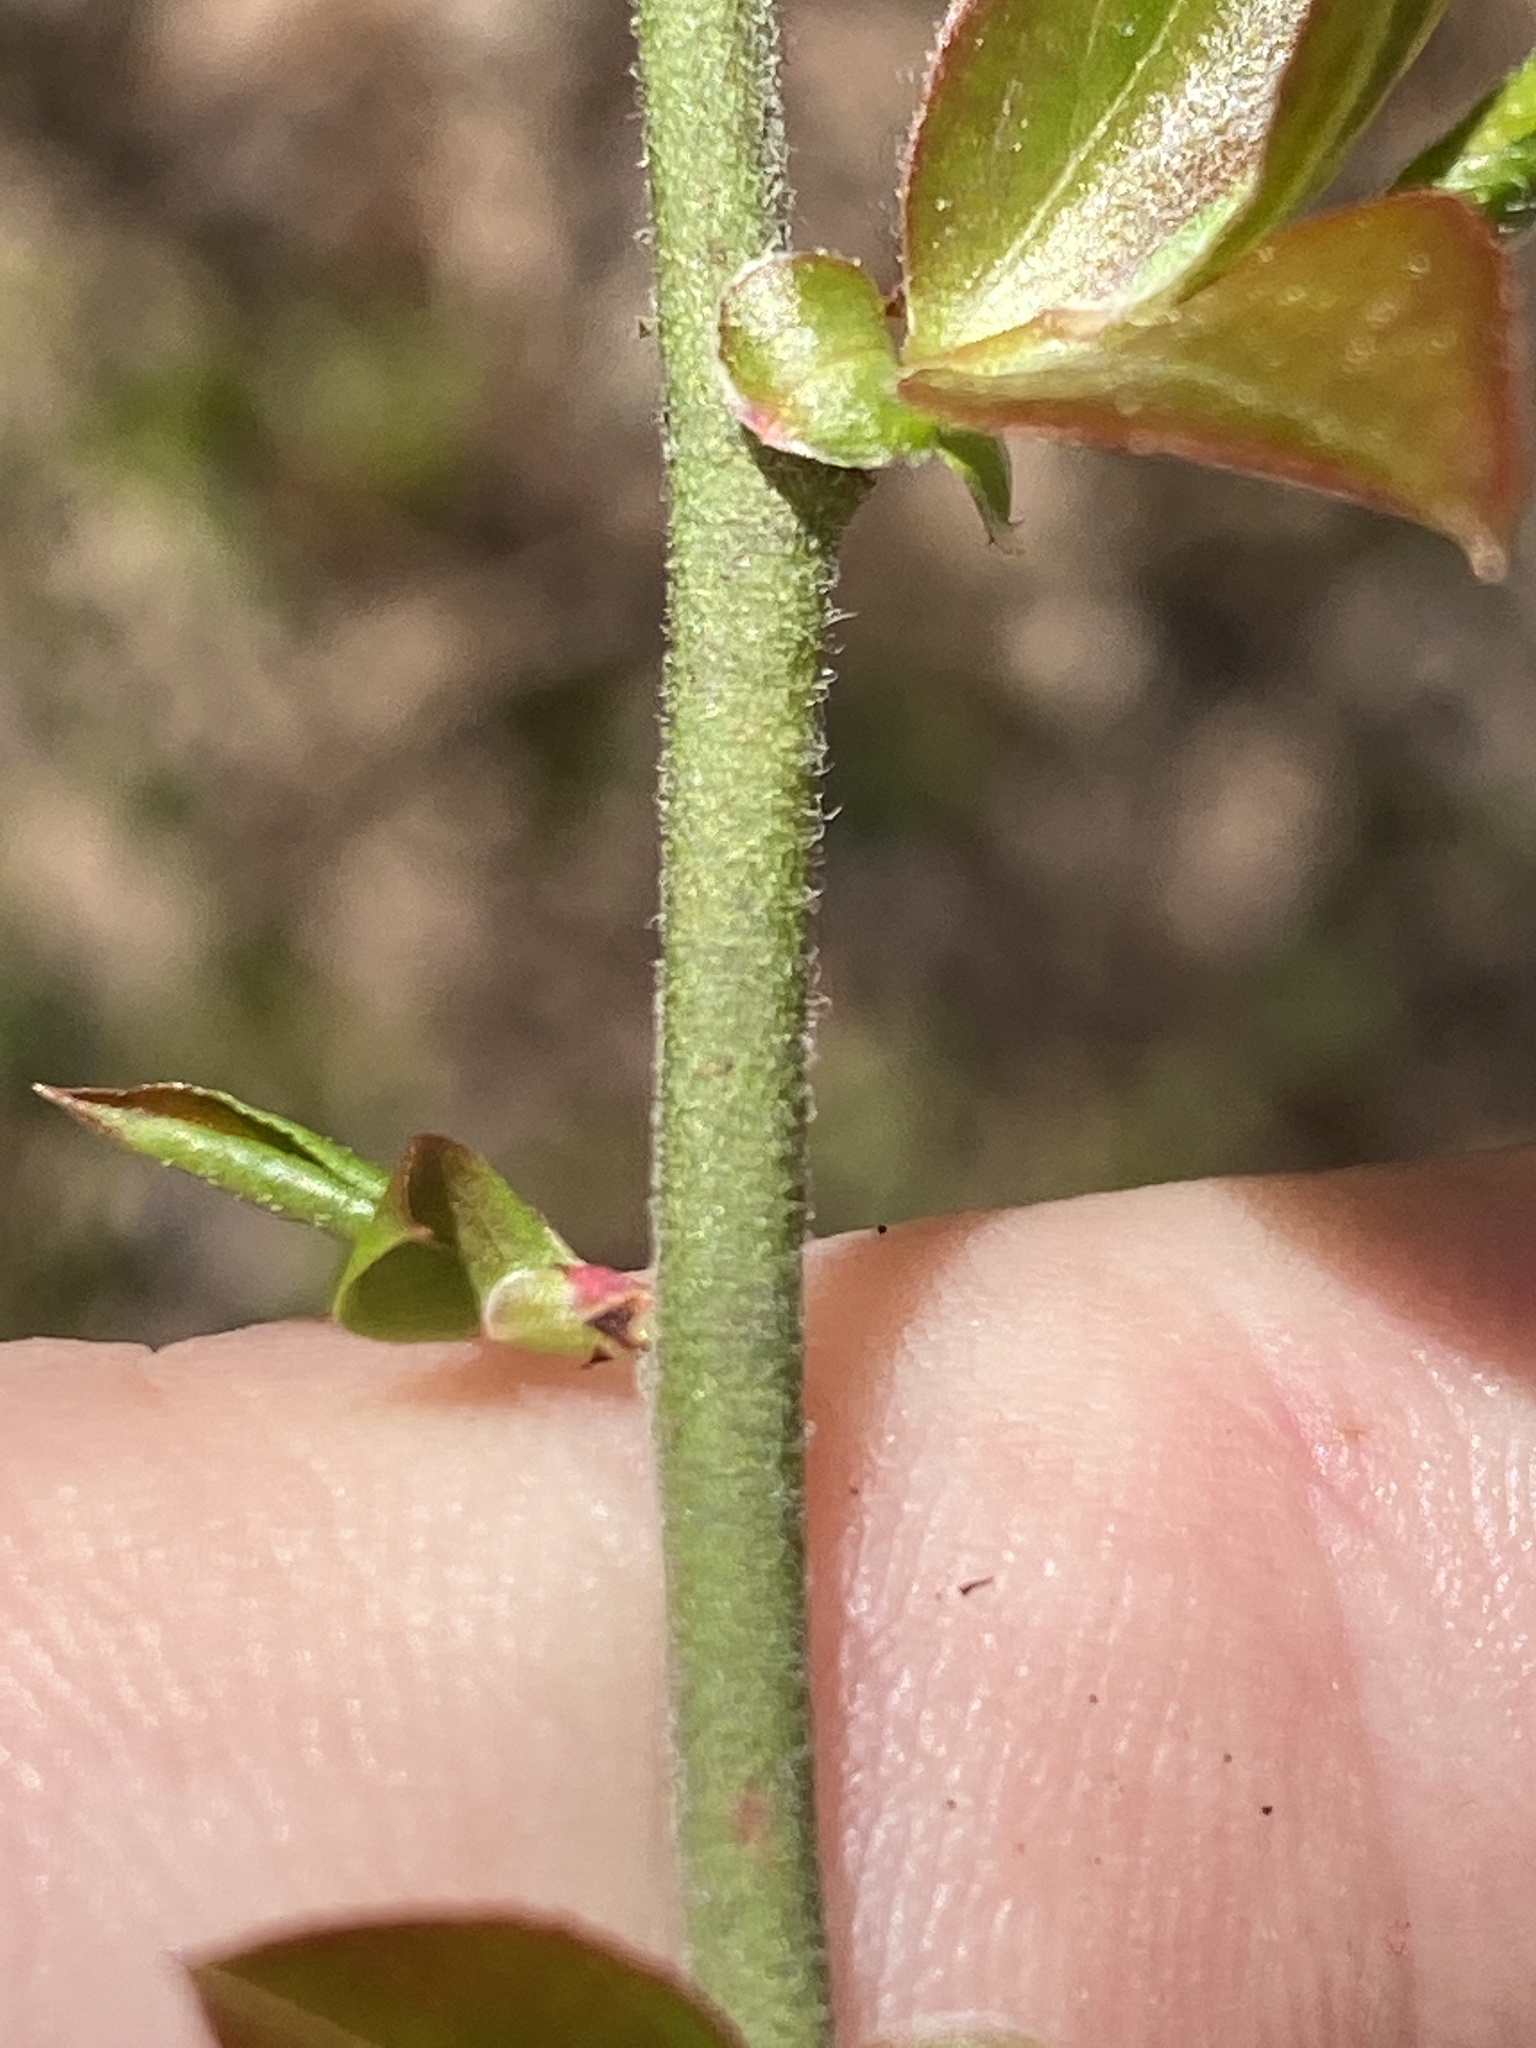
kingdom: Plantae
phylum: Tracheophyta
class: Magnoliopsida
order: Ericales
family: Ericaceae
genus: Vaccinium
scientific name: Vaccinium
